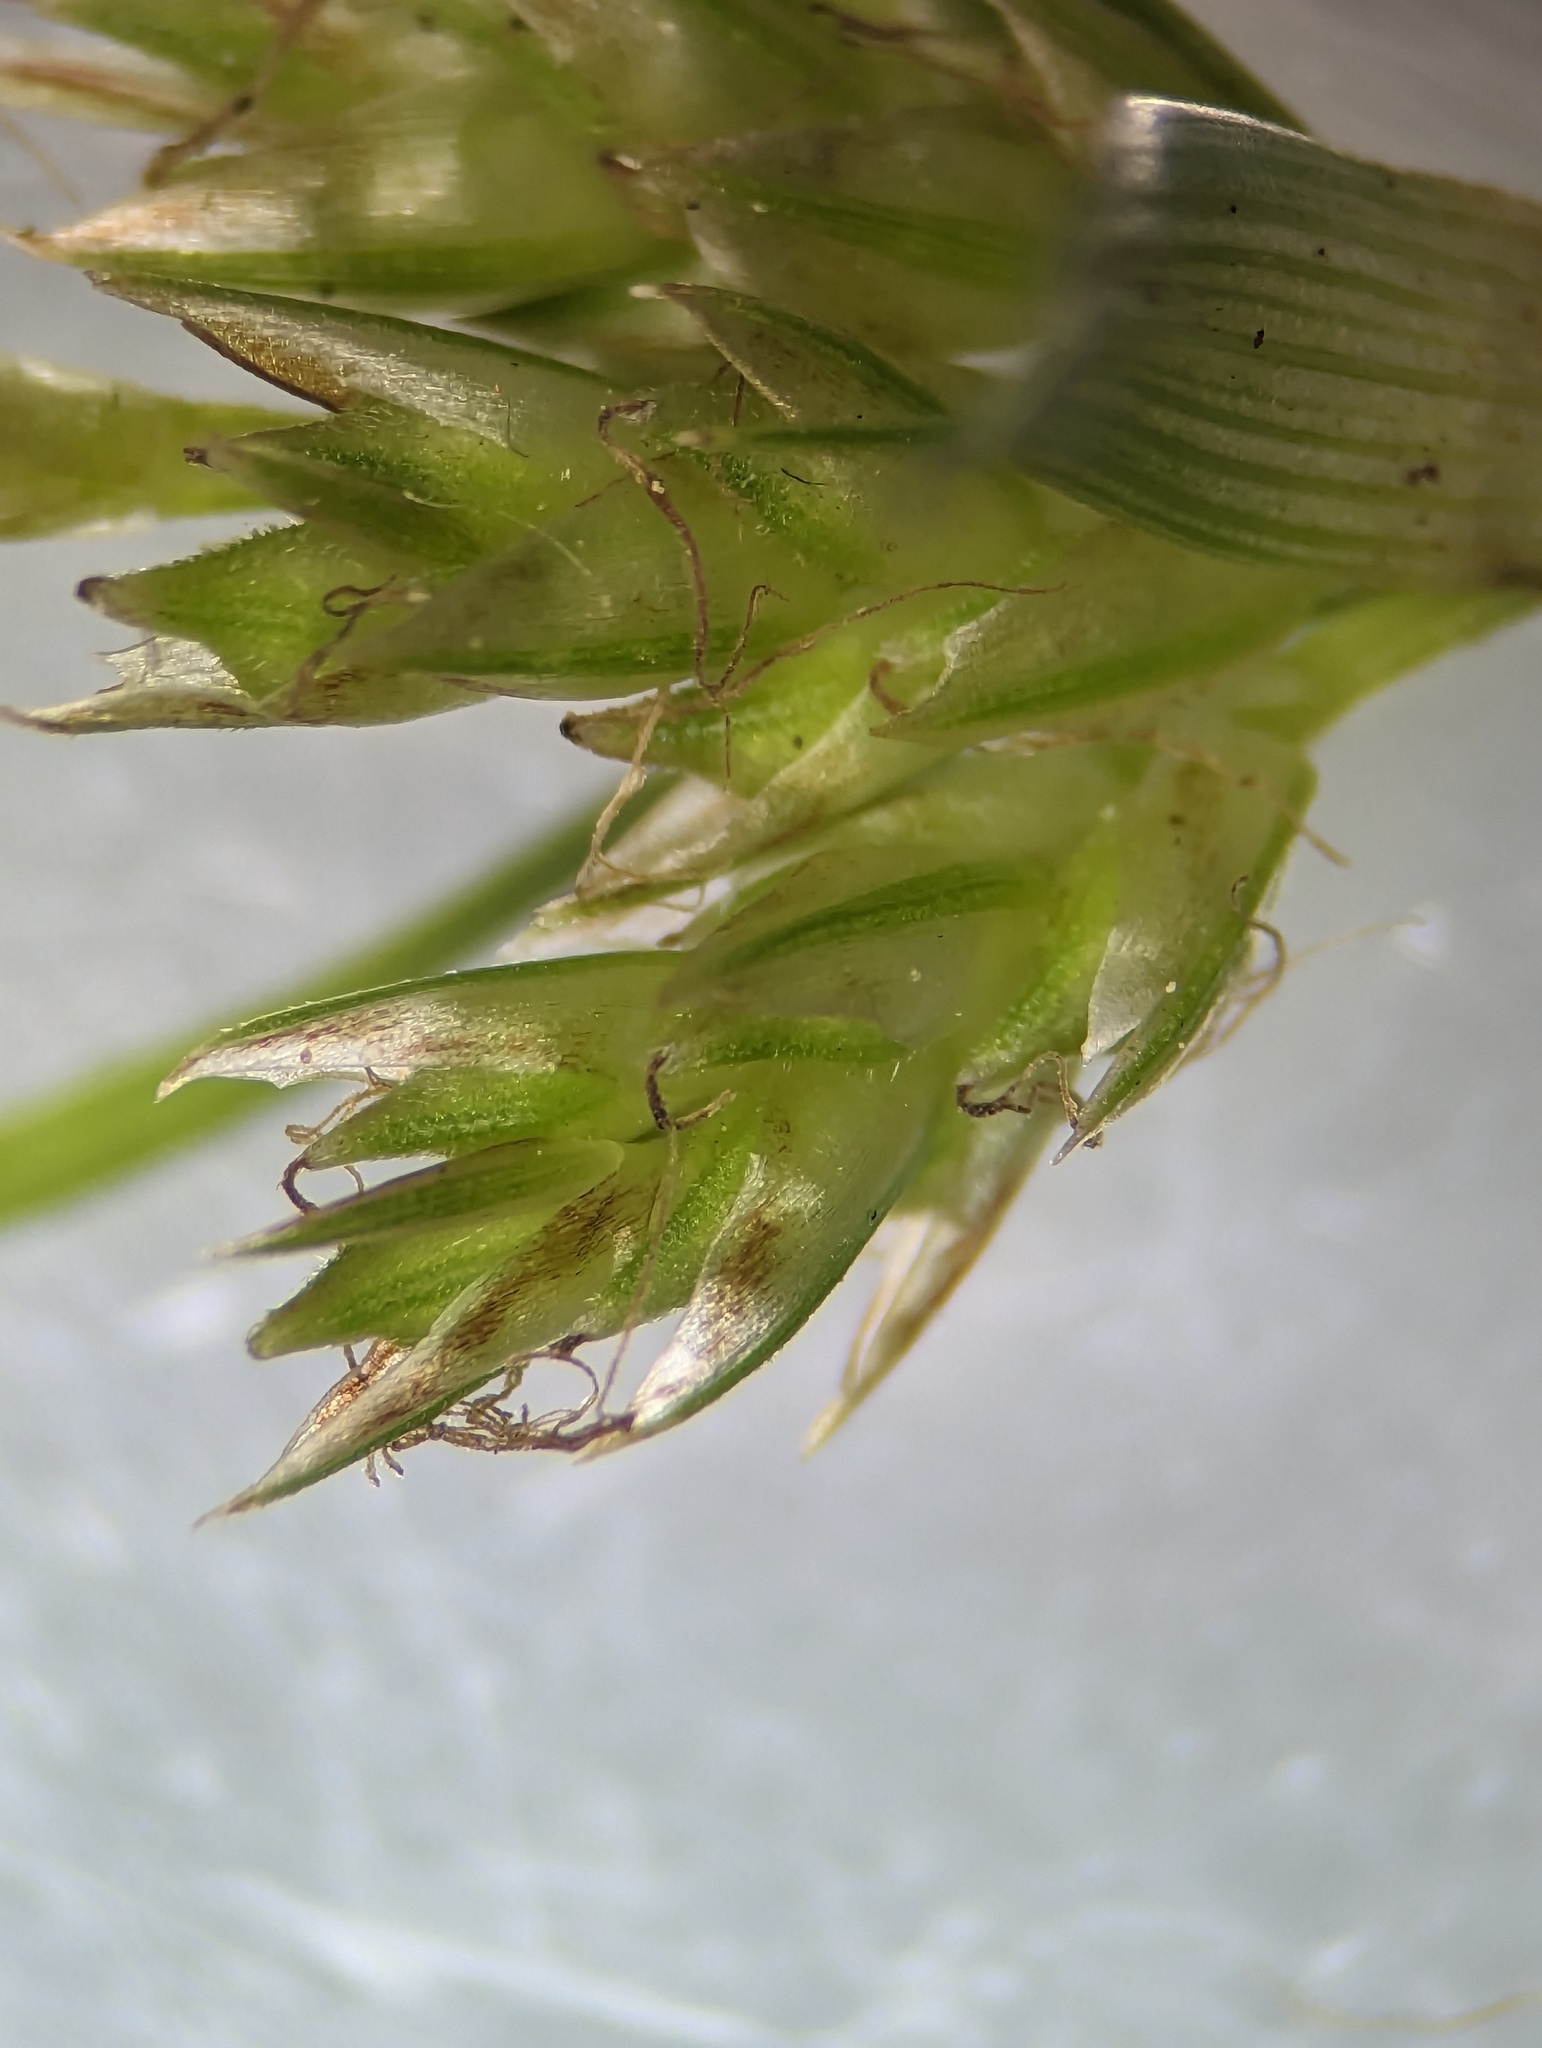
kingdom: Plantae
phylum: Tracheophyta
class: Liliopsida
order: Poales
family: Cyperaceae
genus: Carex
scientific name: Carex umbellata
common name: Early oak sedge
